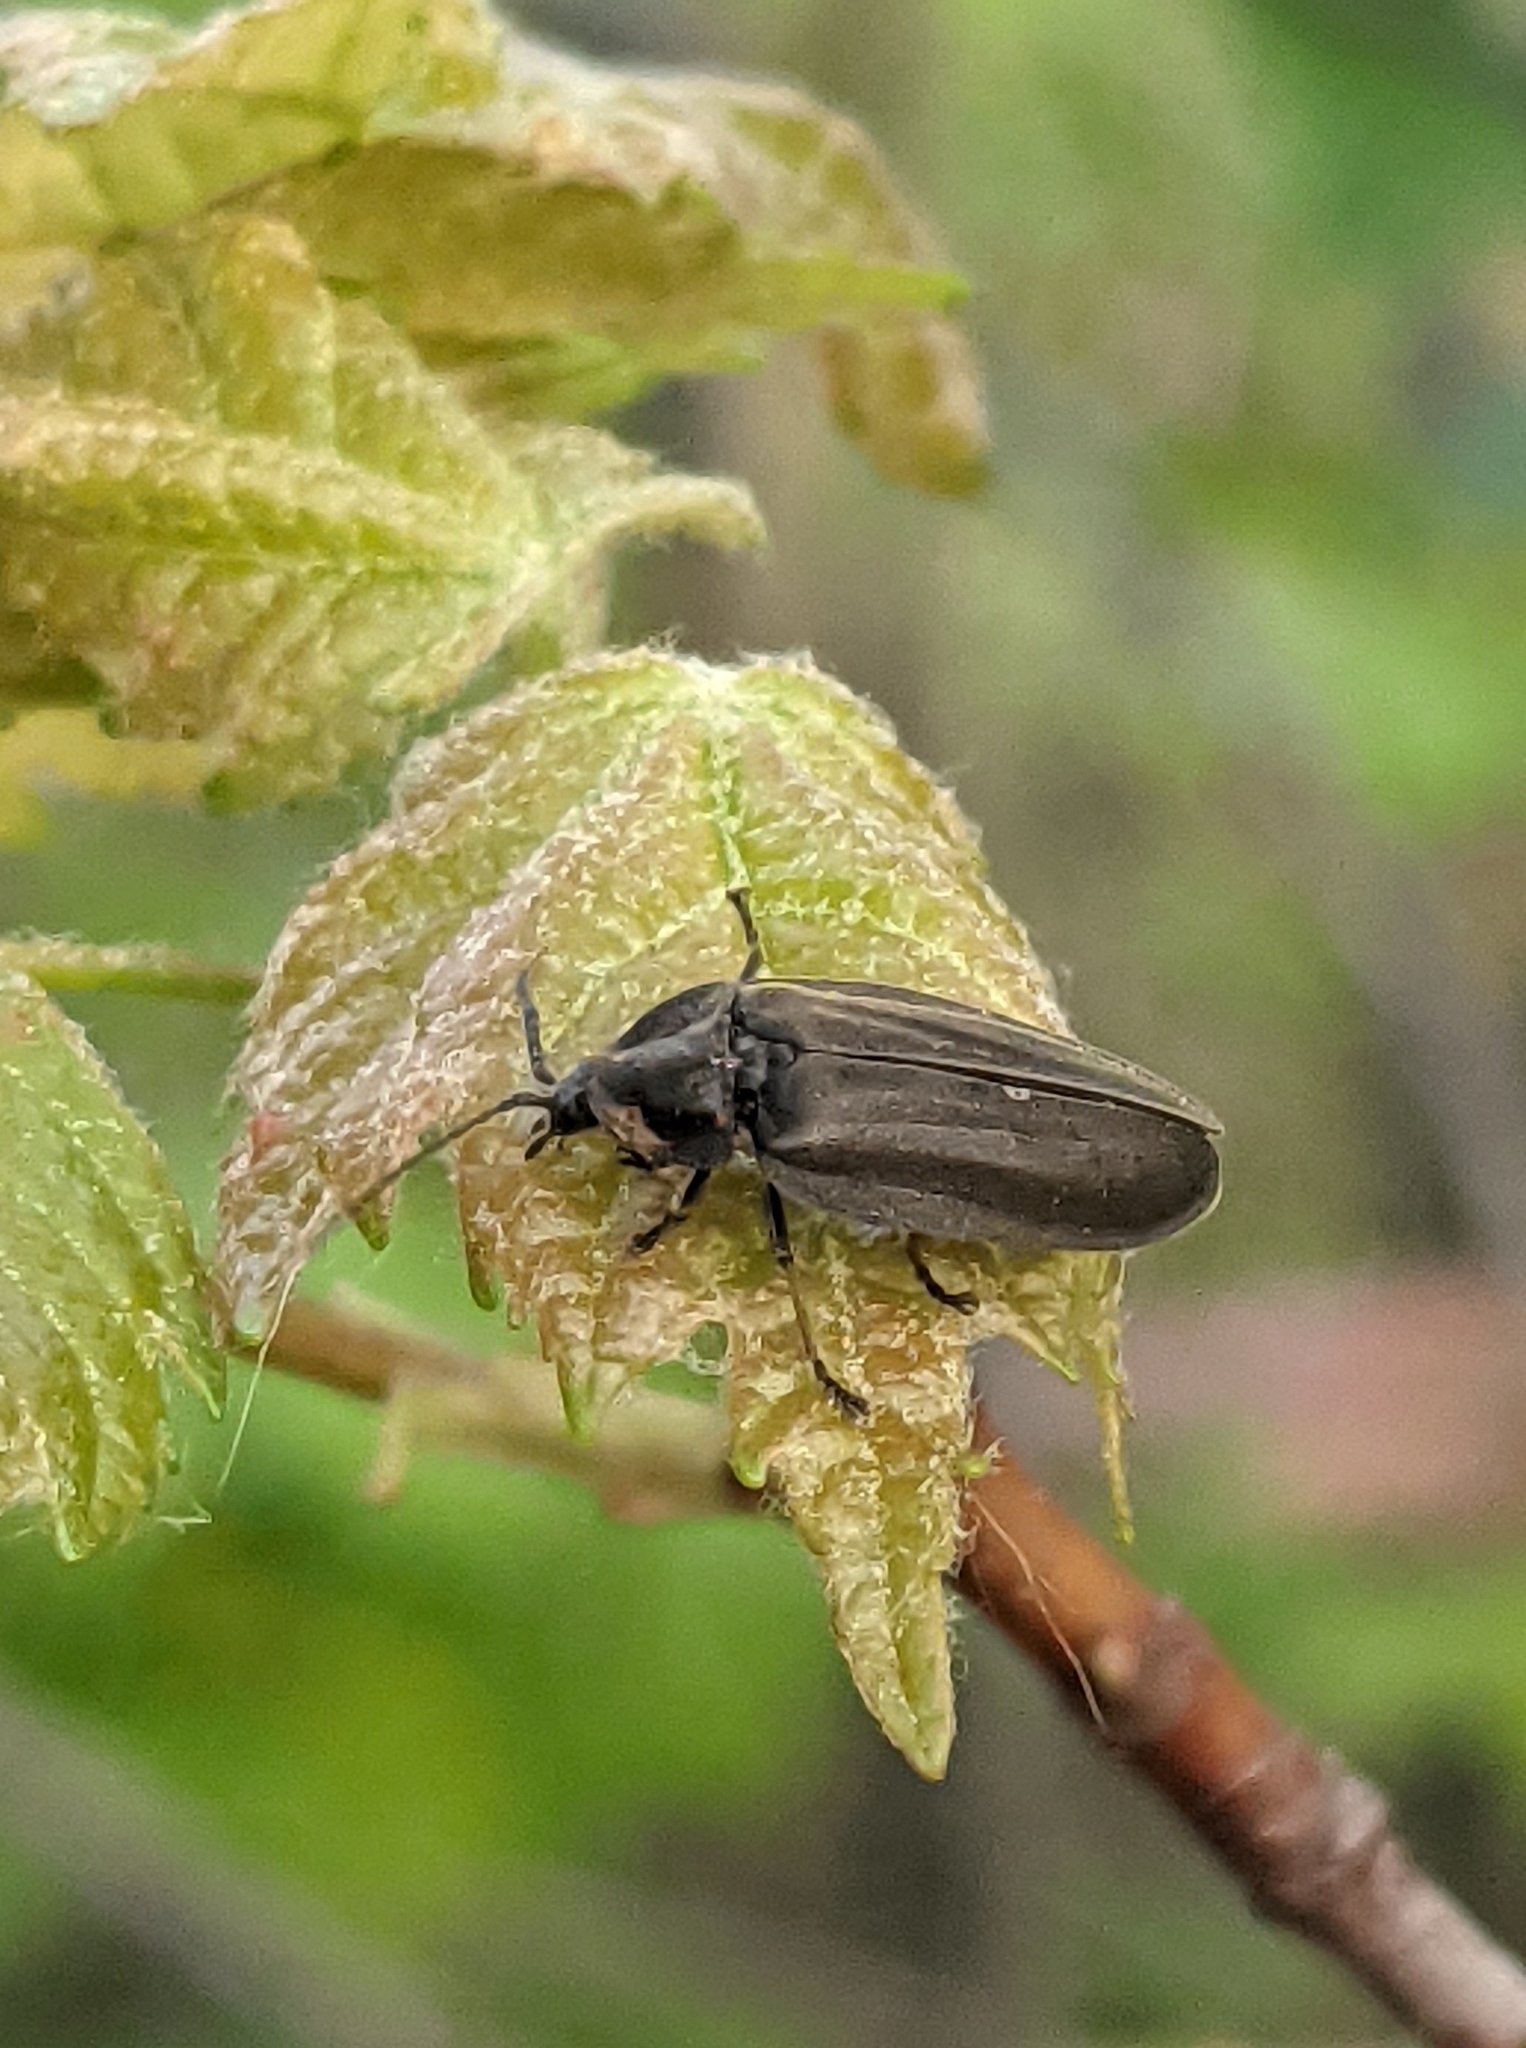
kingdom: Animalia
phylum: Arthropoda
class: Insecta
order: Coleoptera
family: Lampyridae
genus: Photinus
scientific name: Photinus corrusca
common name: Winter firefly
